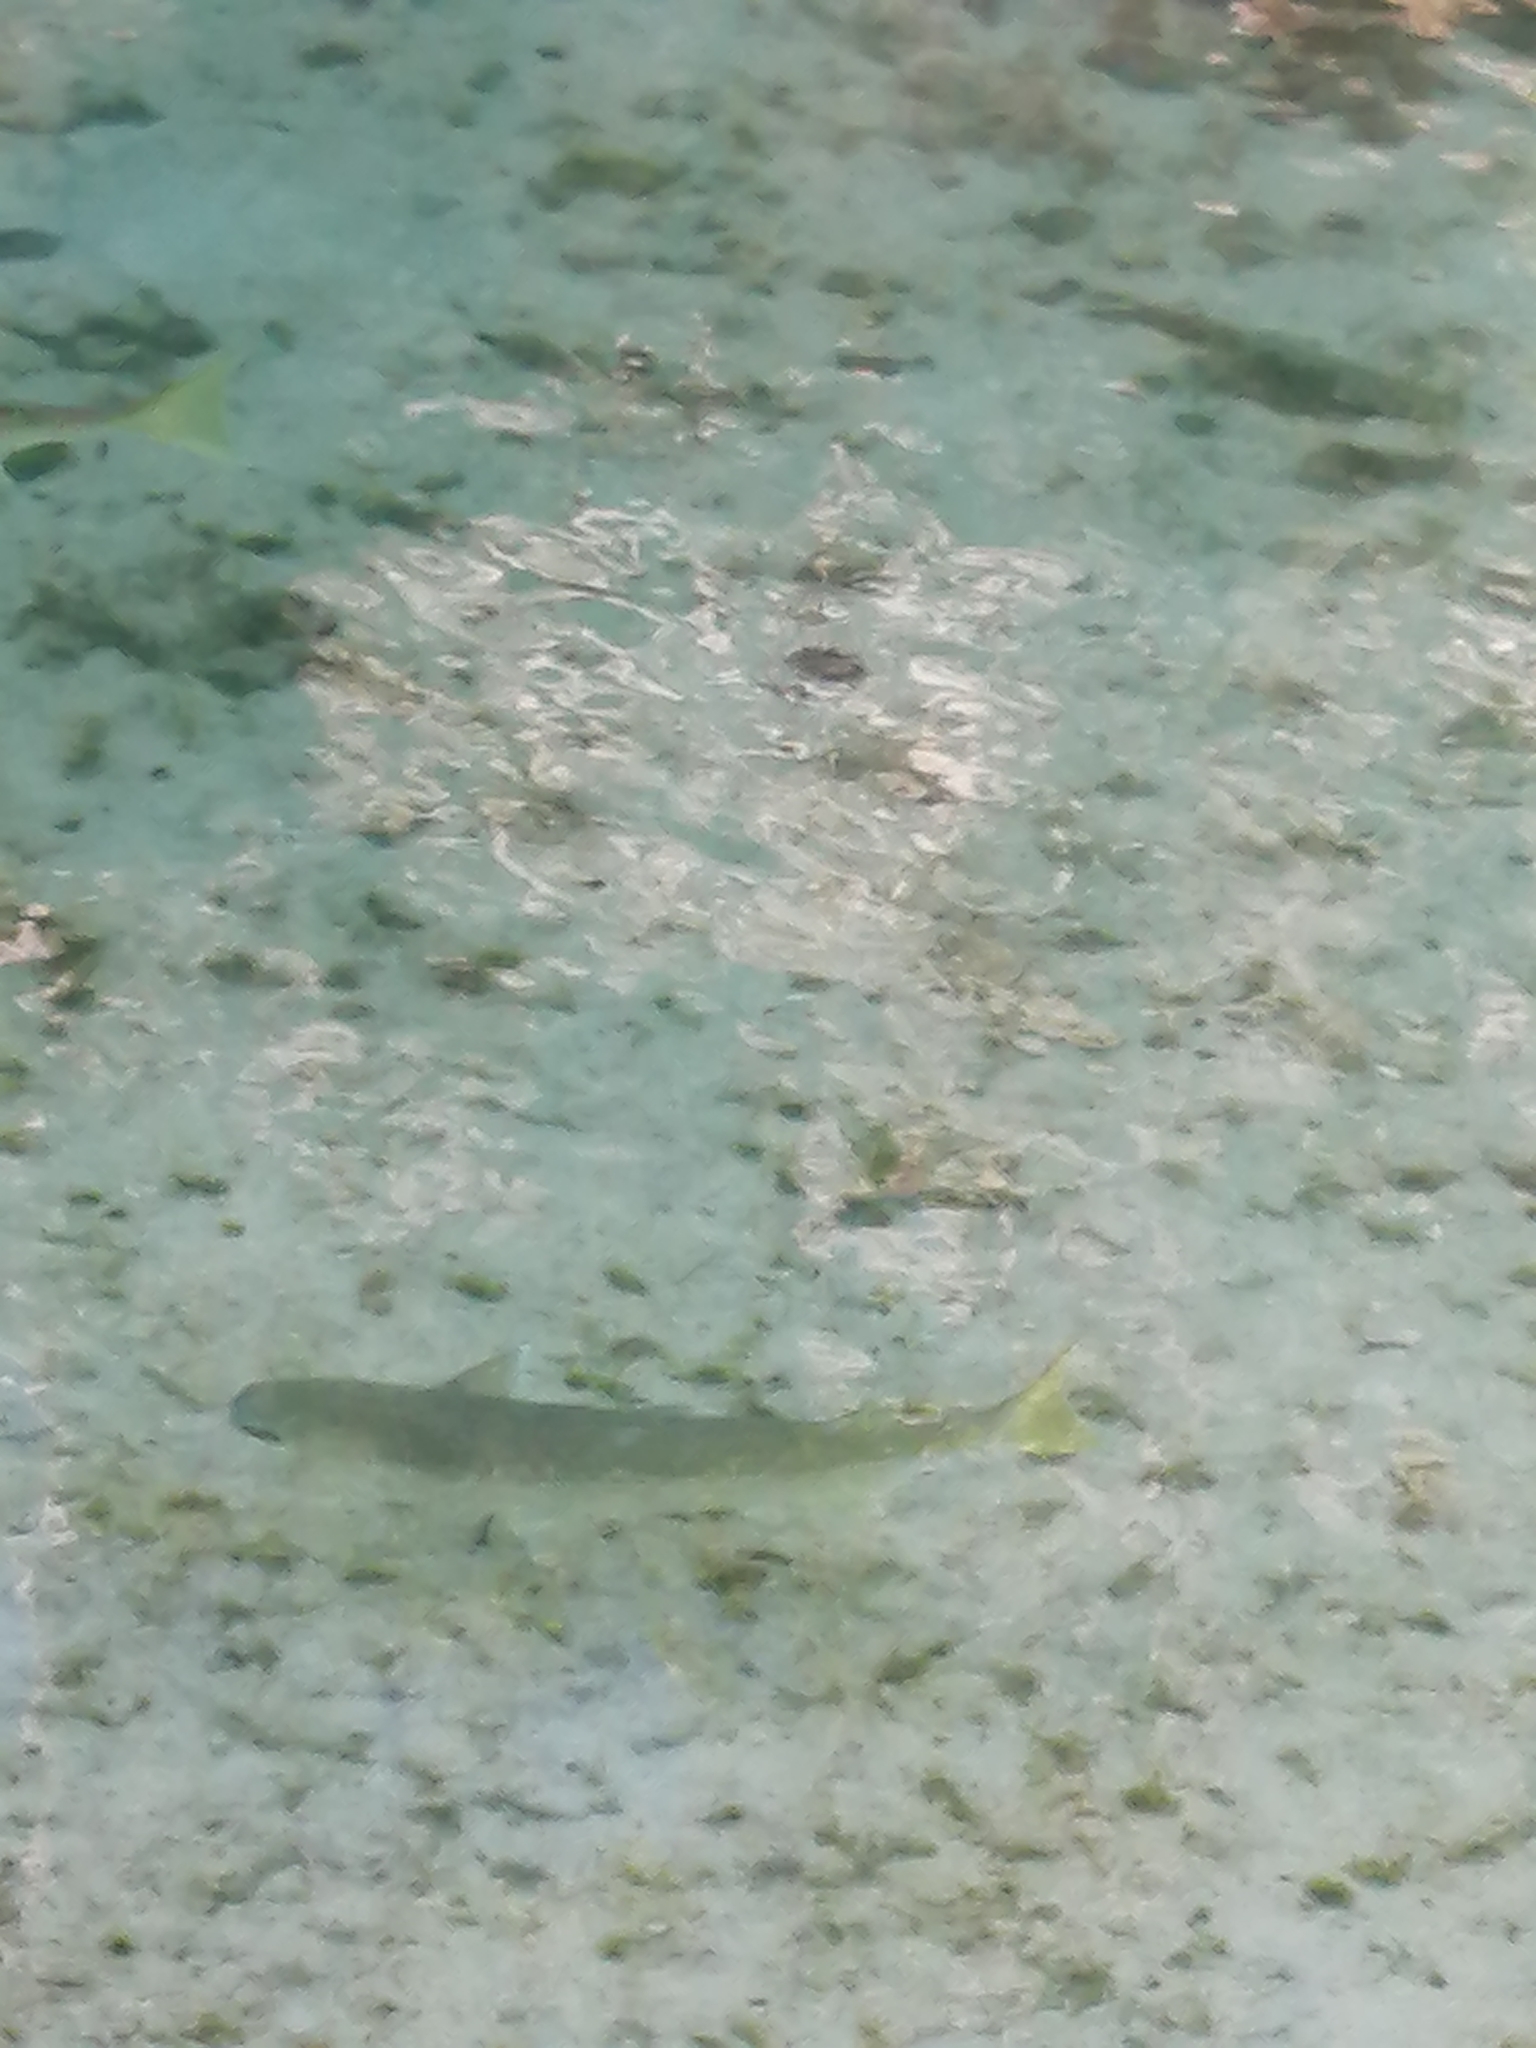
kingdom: Animalia
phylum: Chordata
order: Mugiliformes
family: Mugilidae
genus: Mugil
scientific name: Mugil cephalus
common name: Grey mullet
